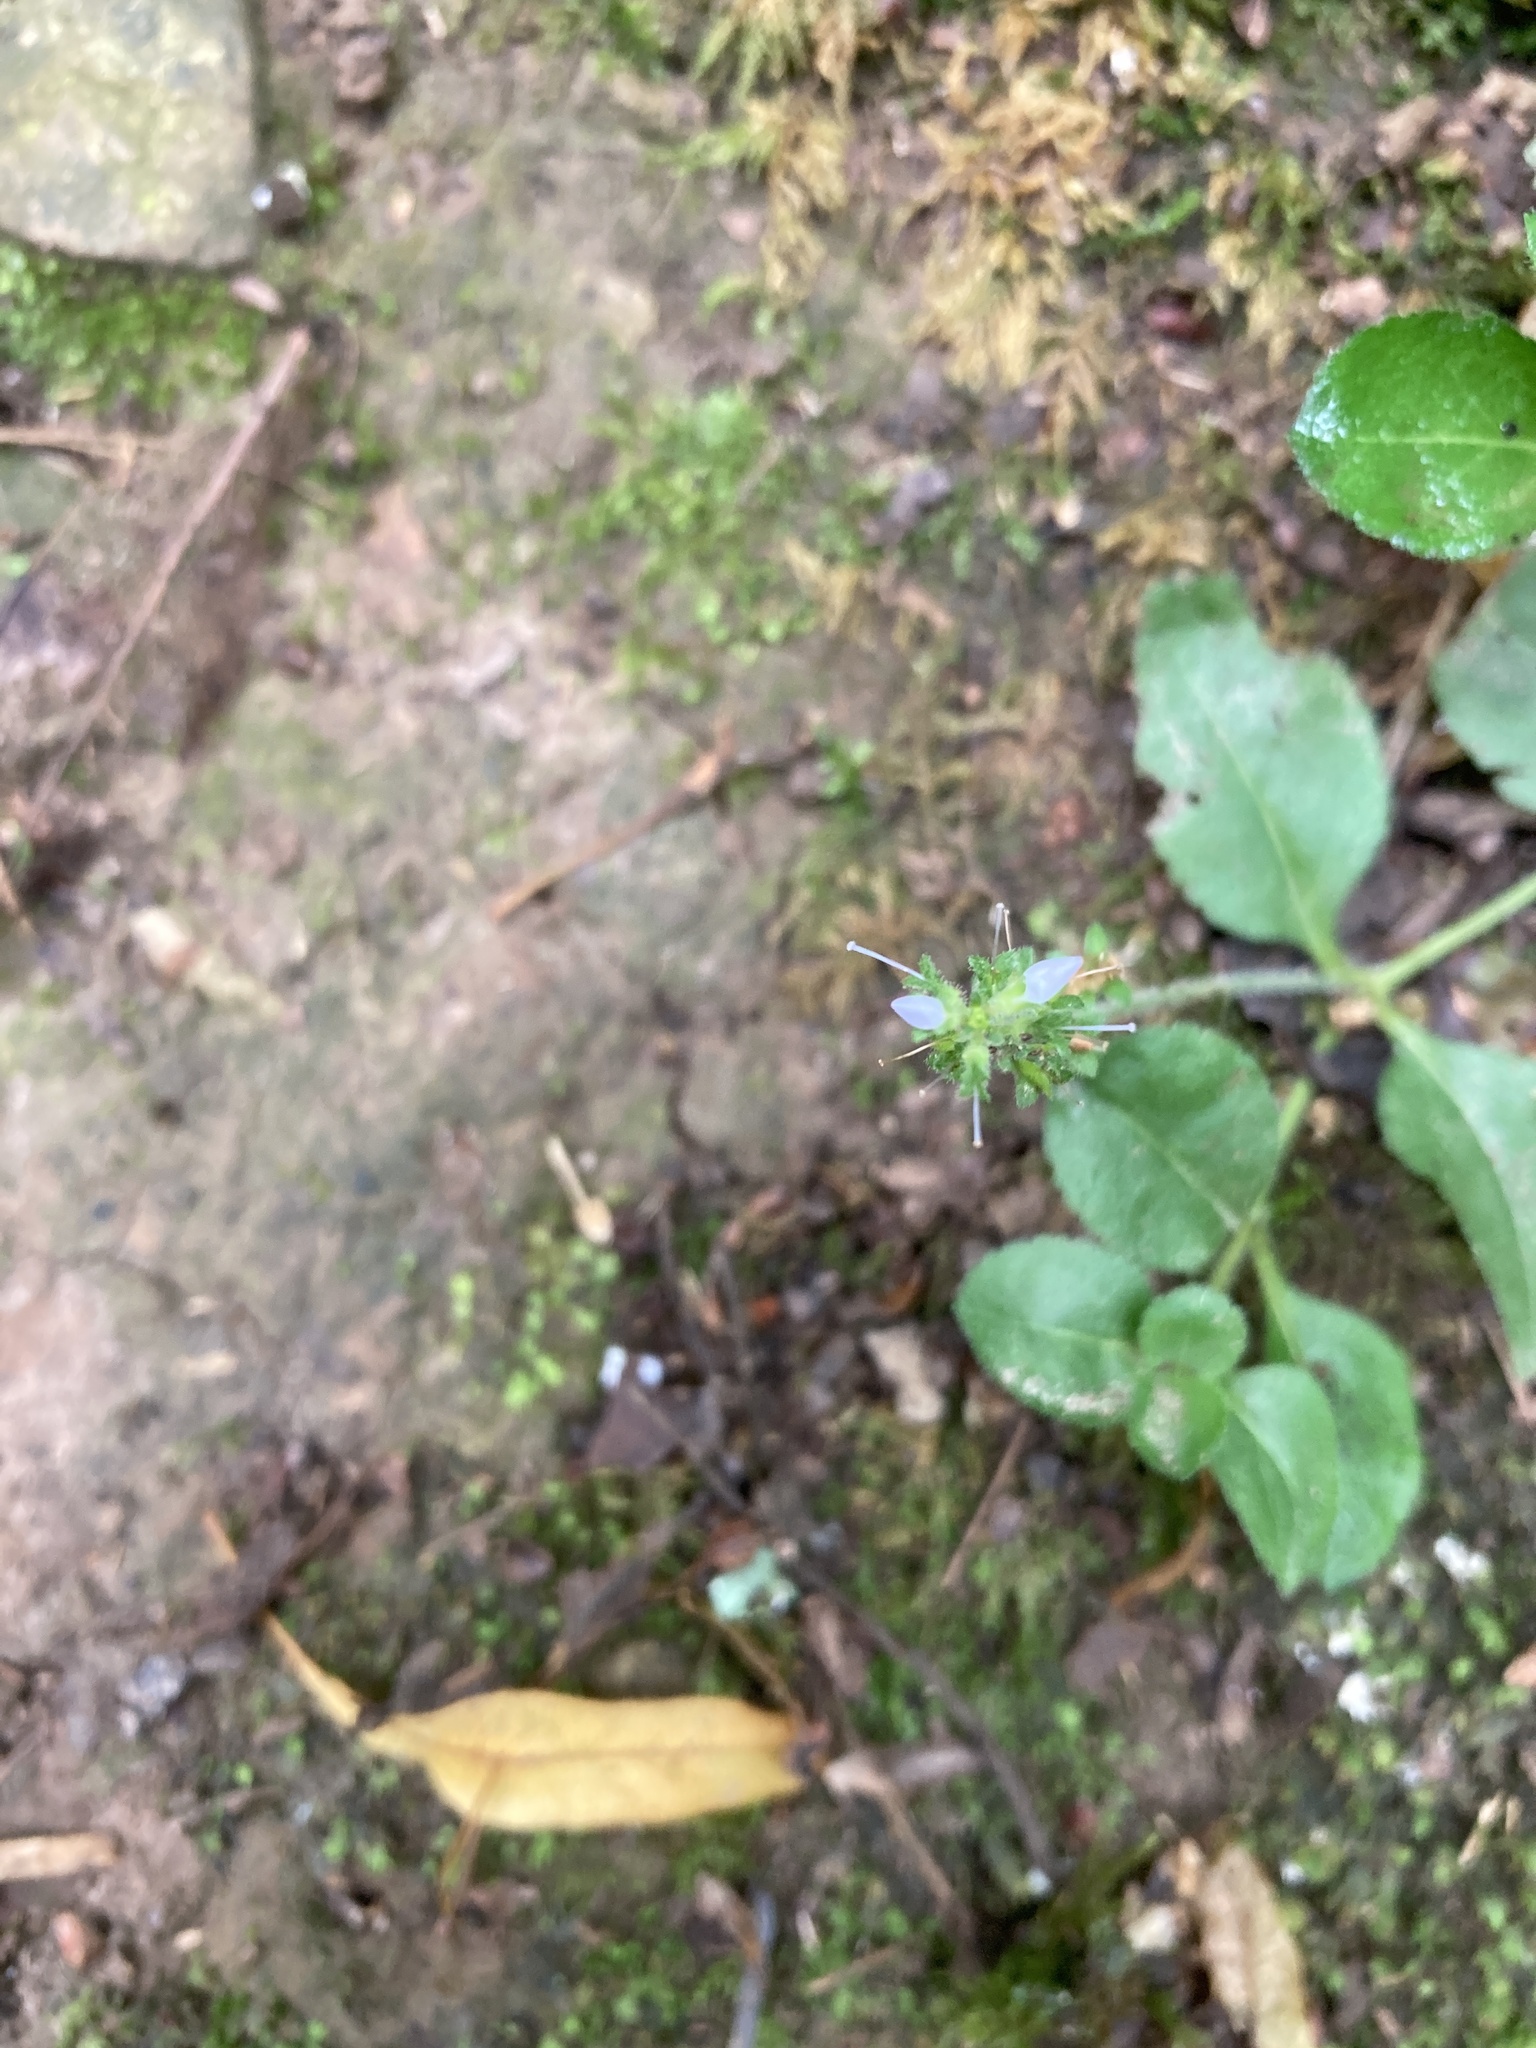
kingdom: Plantae
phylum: Tracheophyta
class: Magnoliopsida
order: Lamiales
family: Plantaginaceae
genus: Veronica
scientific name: Veronica officinalis
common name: Common speedwell
